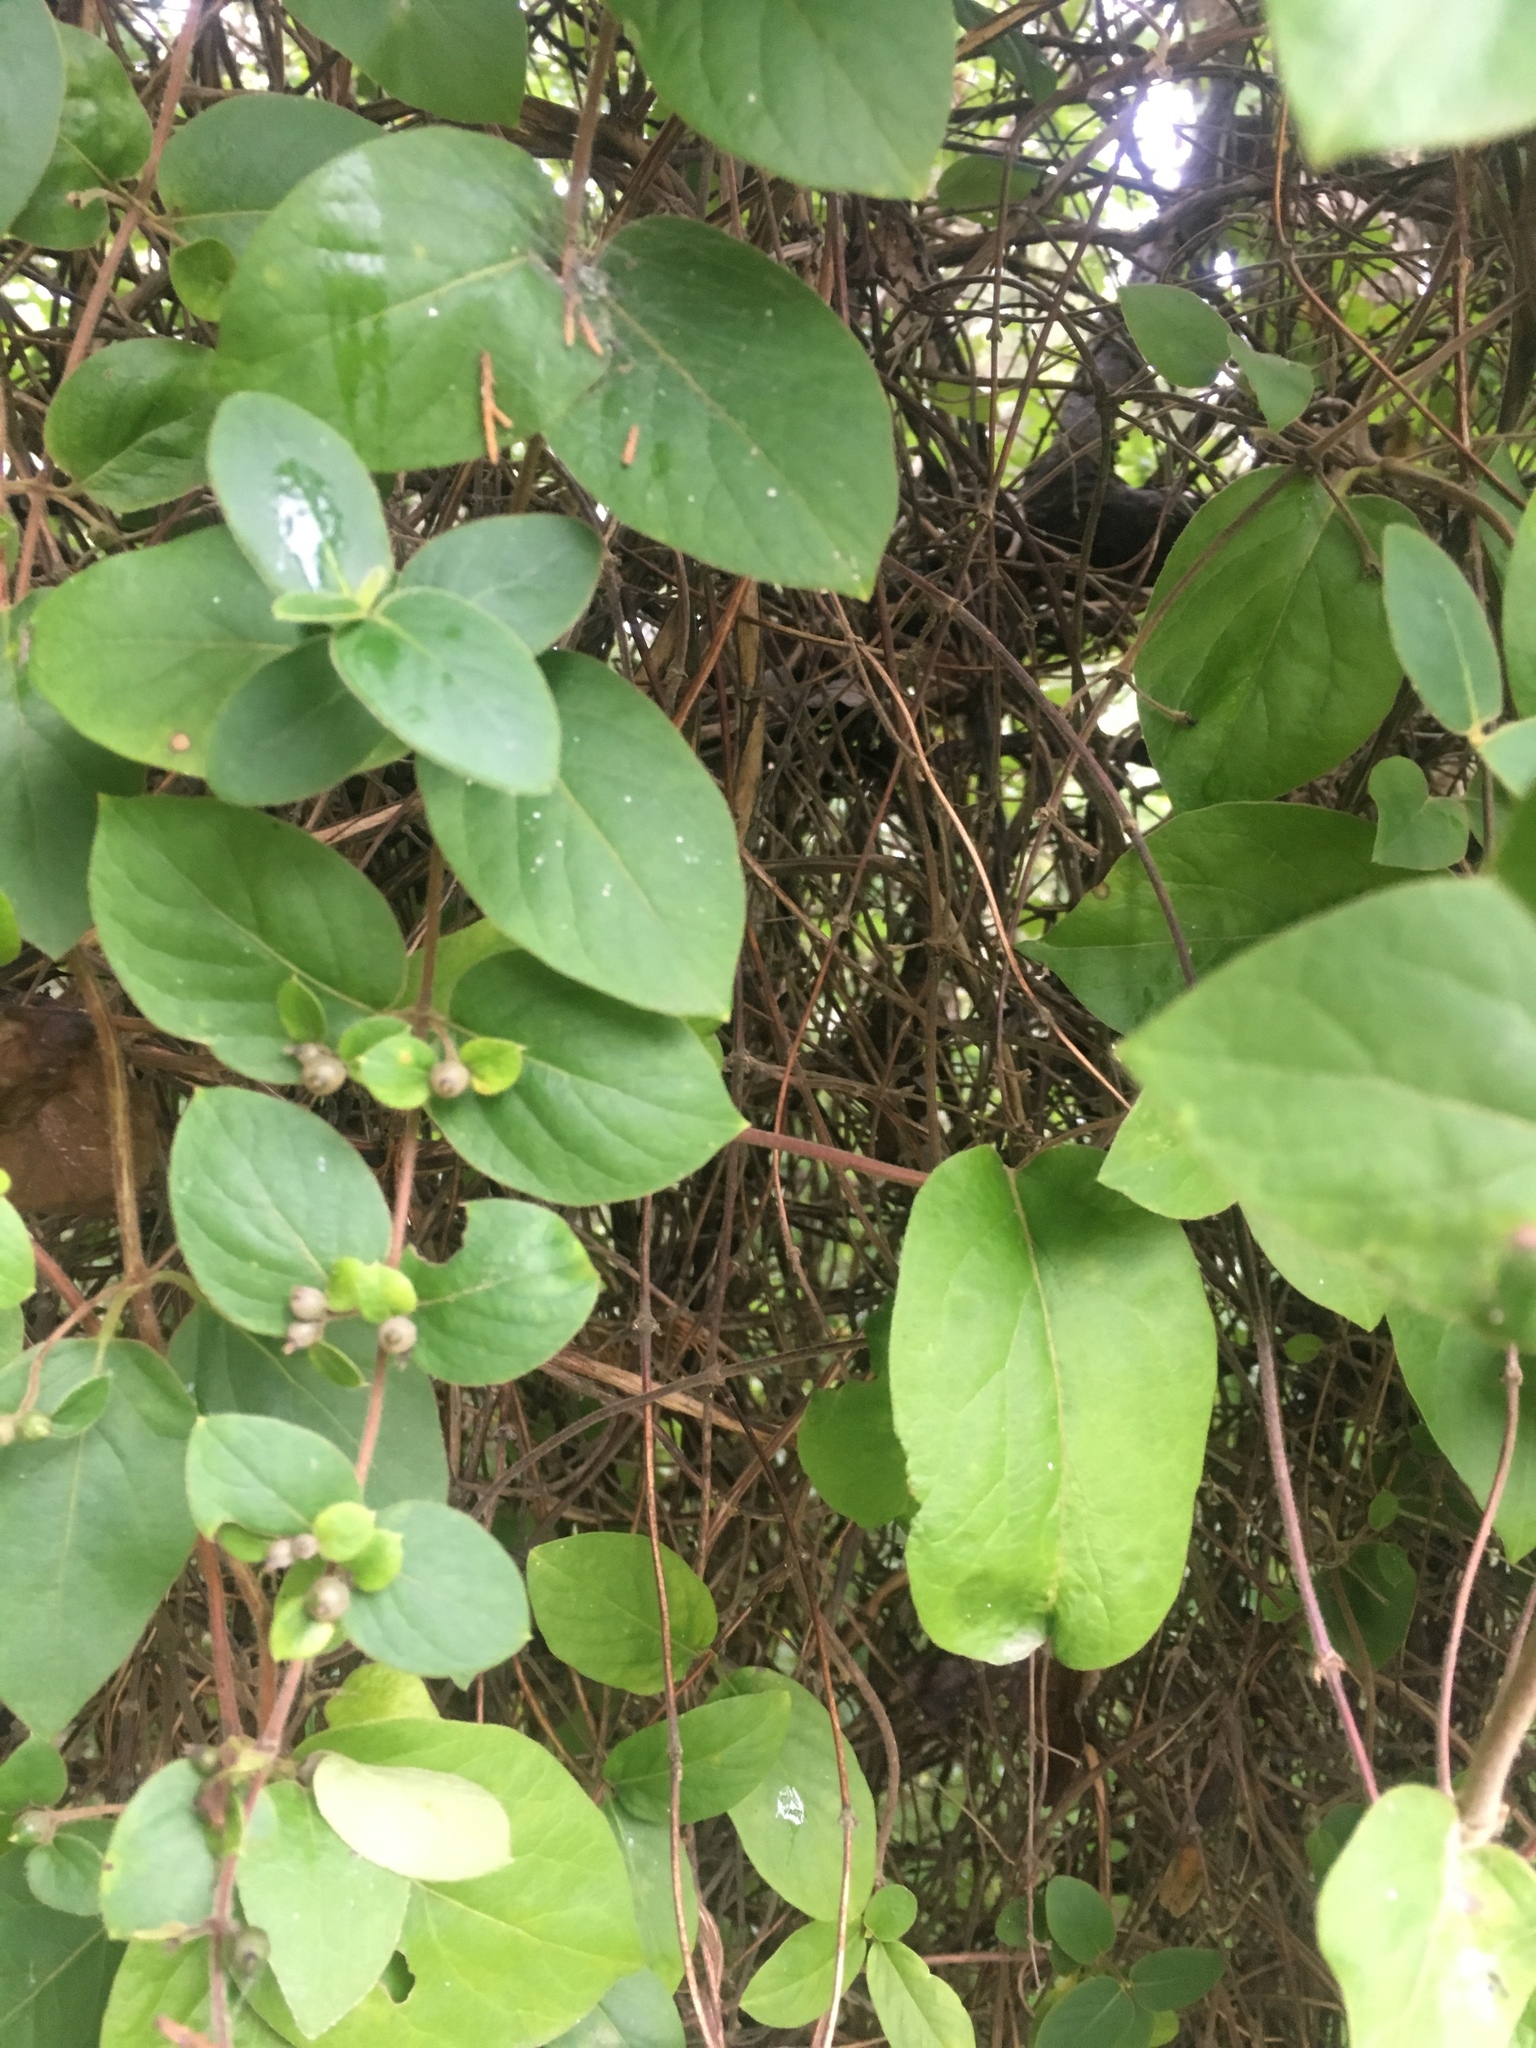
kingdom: Plantae
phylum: Tracheophyta
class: Magnoliopsida
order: Dipsacales
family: Caprifoliaceae
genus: Lonicera
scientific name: Lonicera japonica
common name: Japanese honeysuckle
